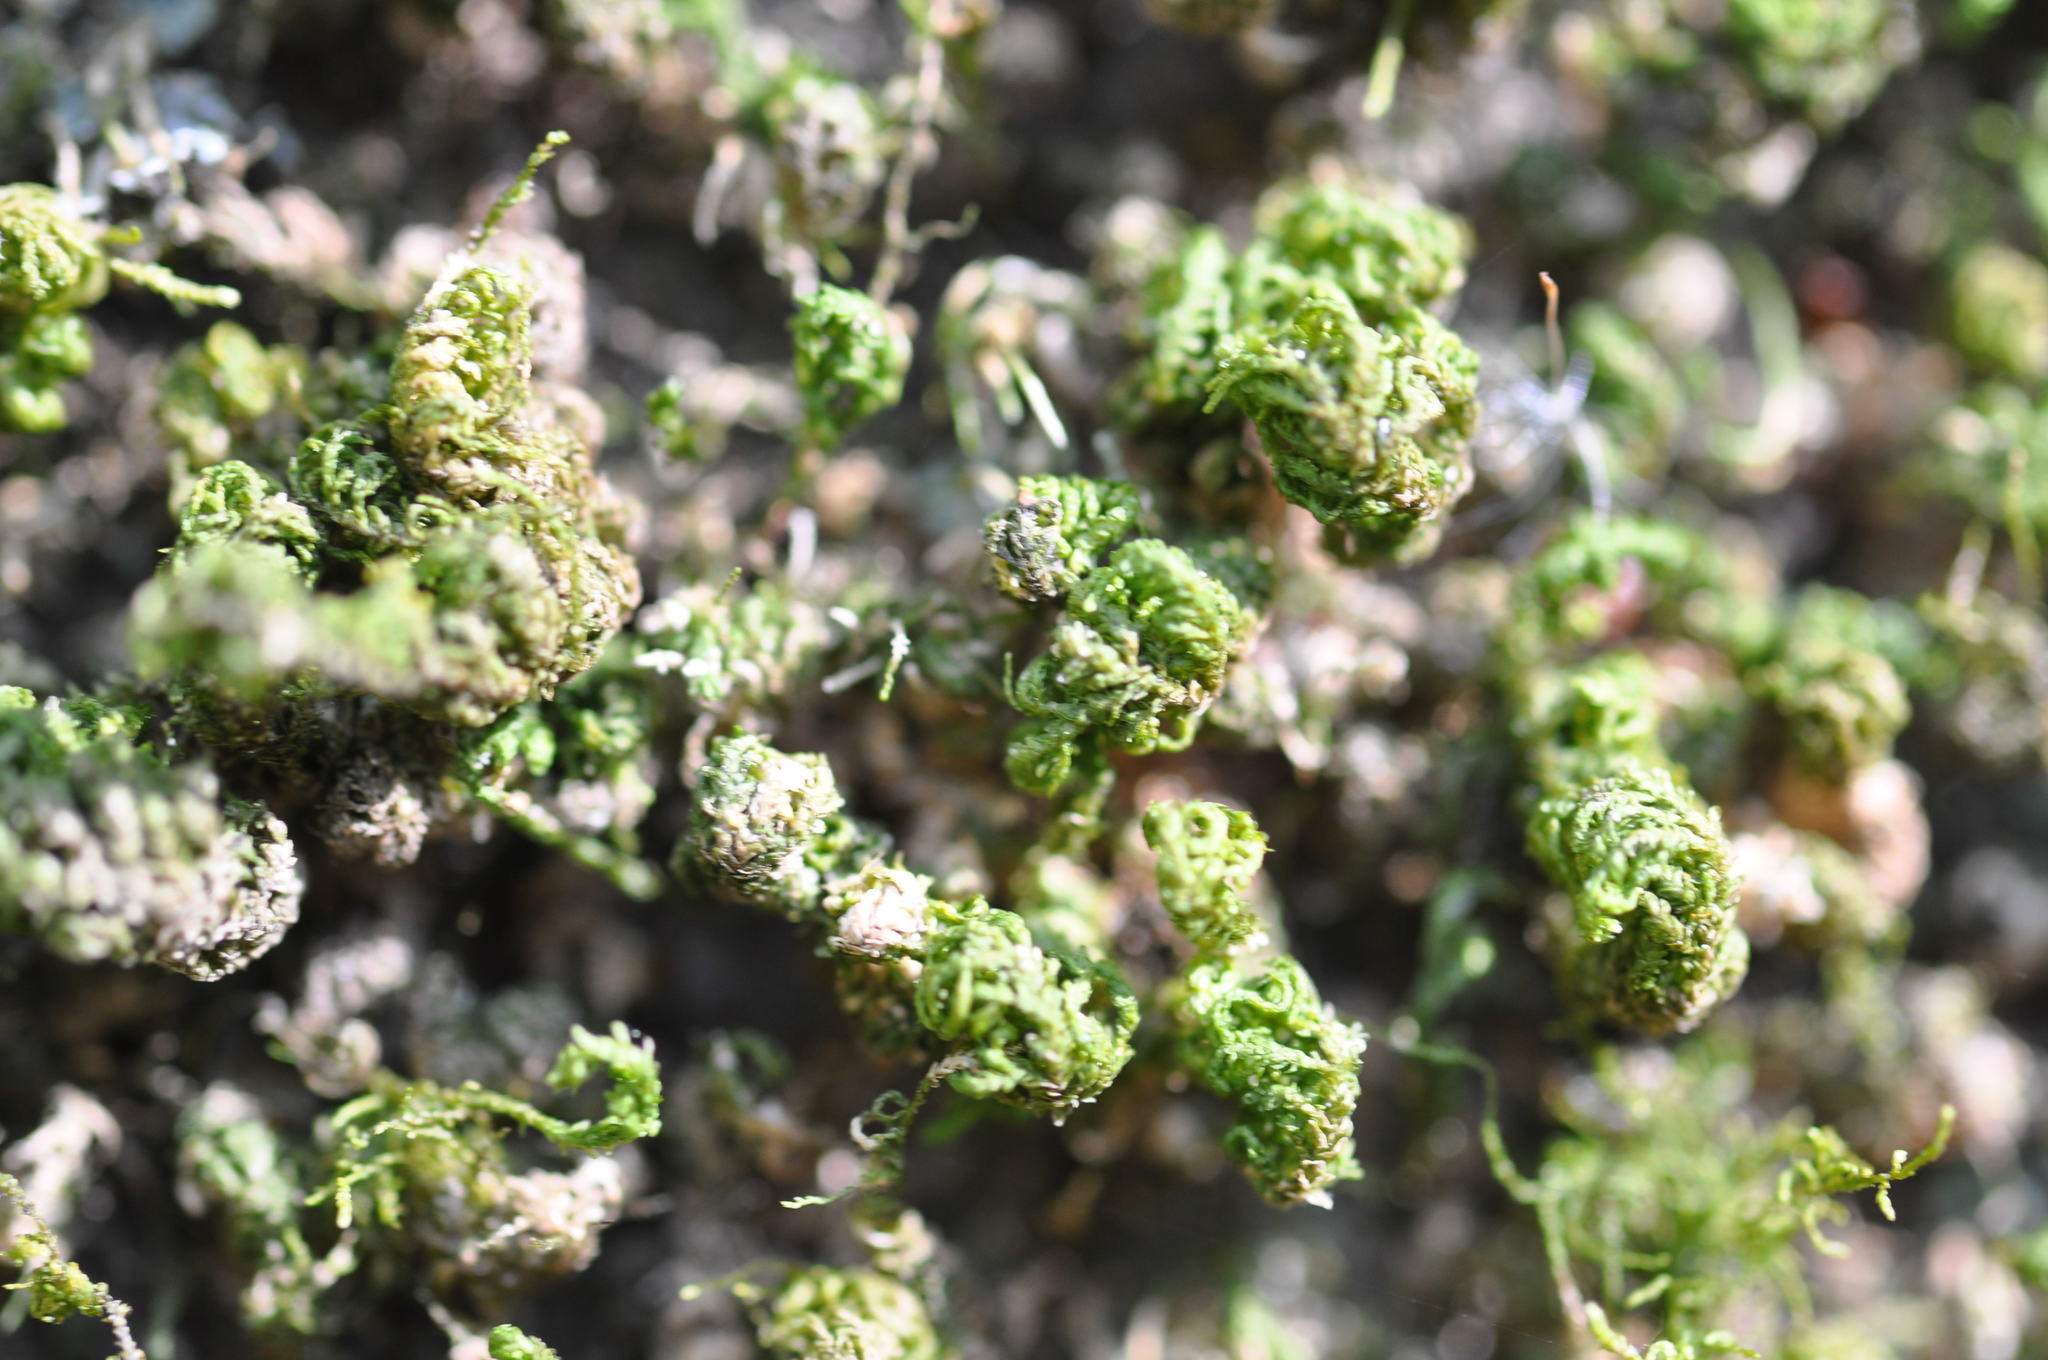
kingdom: Plantae
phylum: Bryophyta
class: Bryopsida
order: Hypnales
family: Neckeraceae
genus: Leptodon
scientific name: Leptodon smithii
